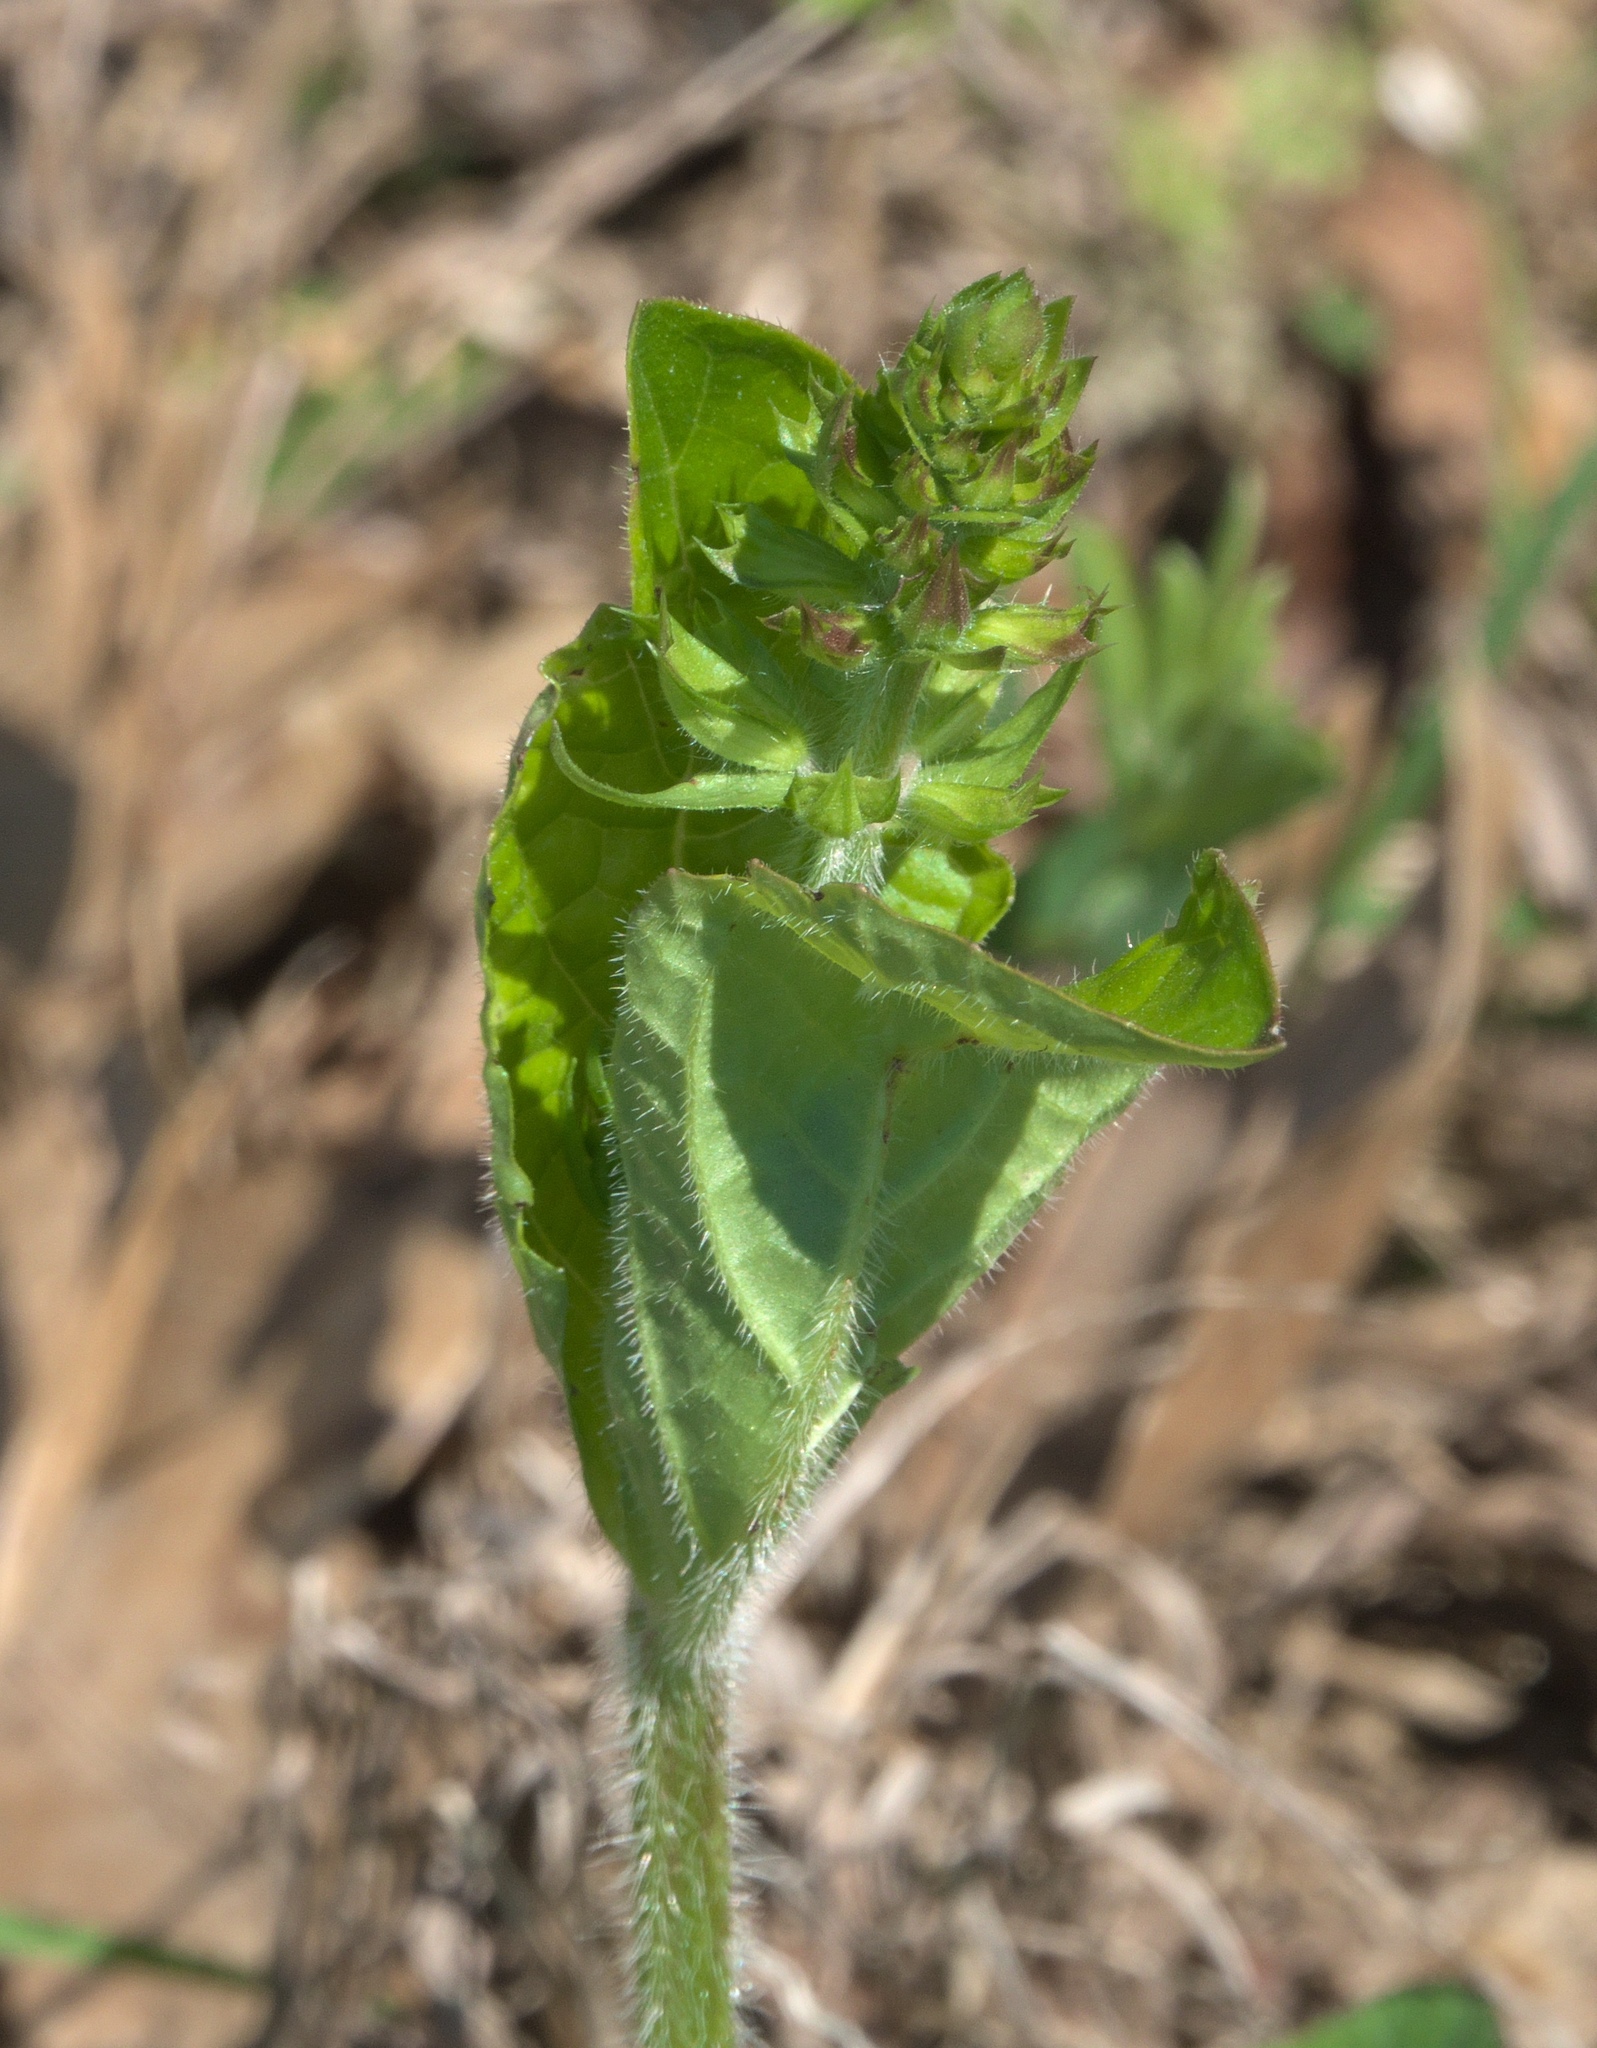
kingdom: Plantae
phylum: Tracheophyta
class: Magnoliopsida
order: Lamiales
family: Lamiaceae
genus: Salvia
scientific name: Salvia lyrata
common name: Cancerweed
